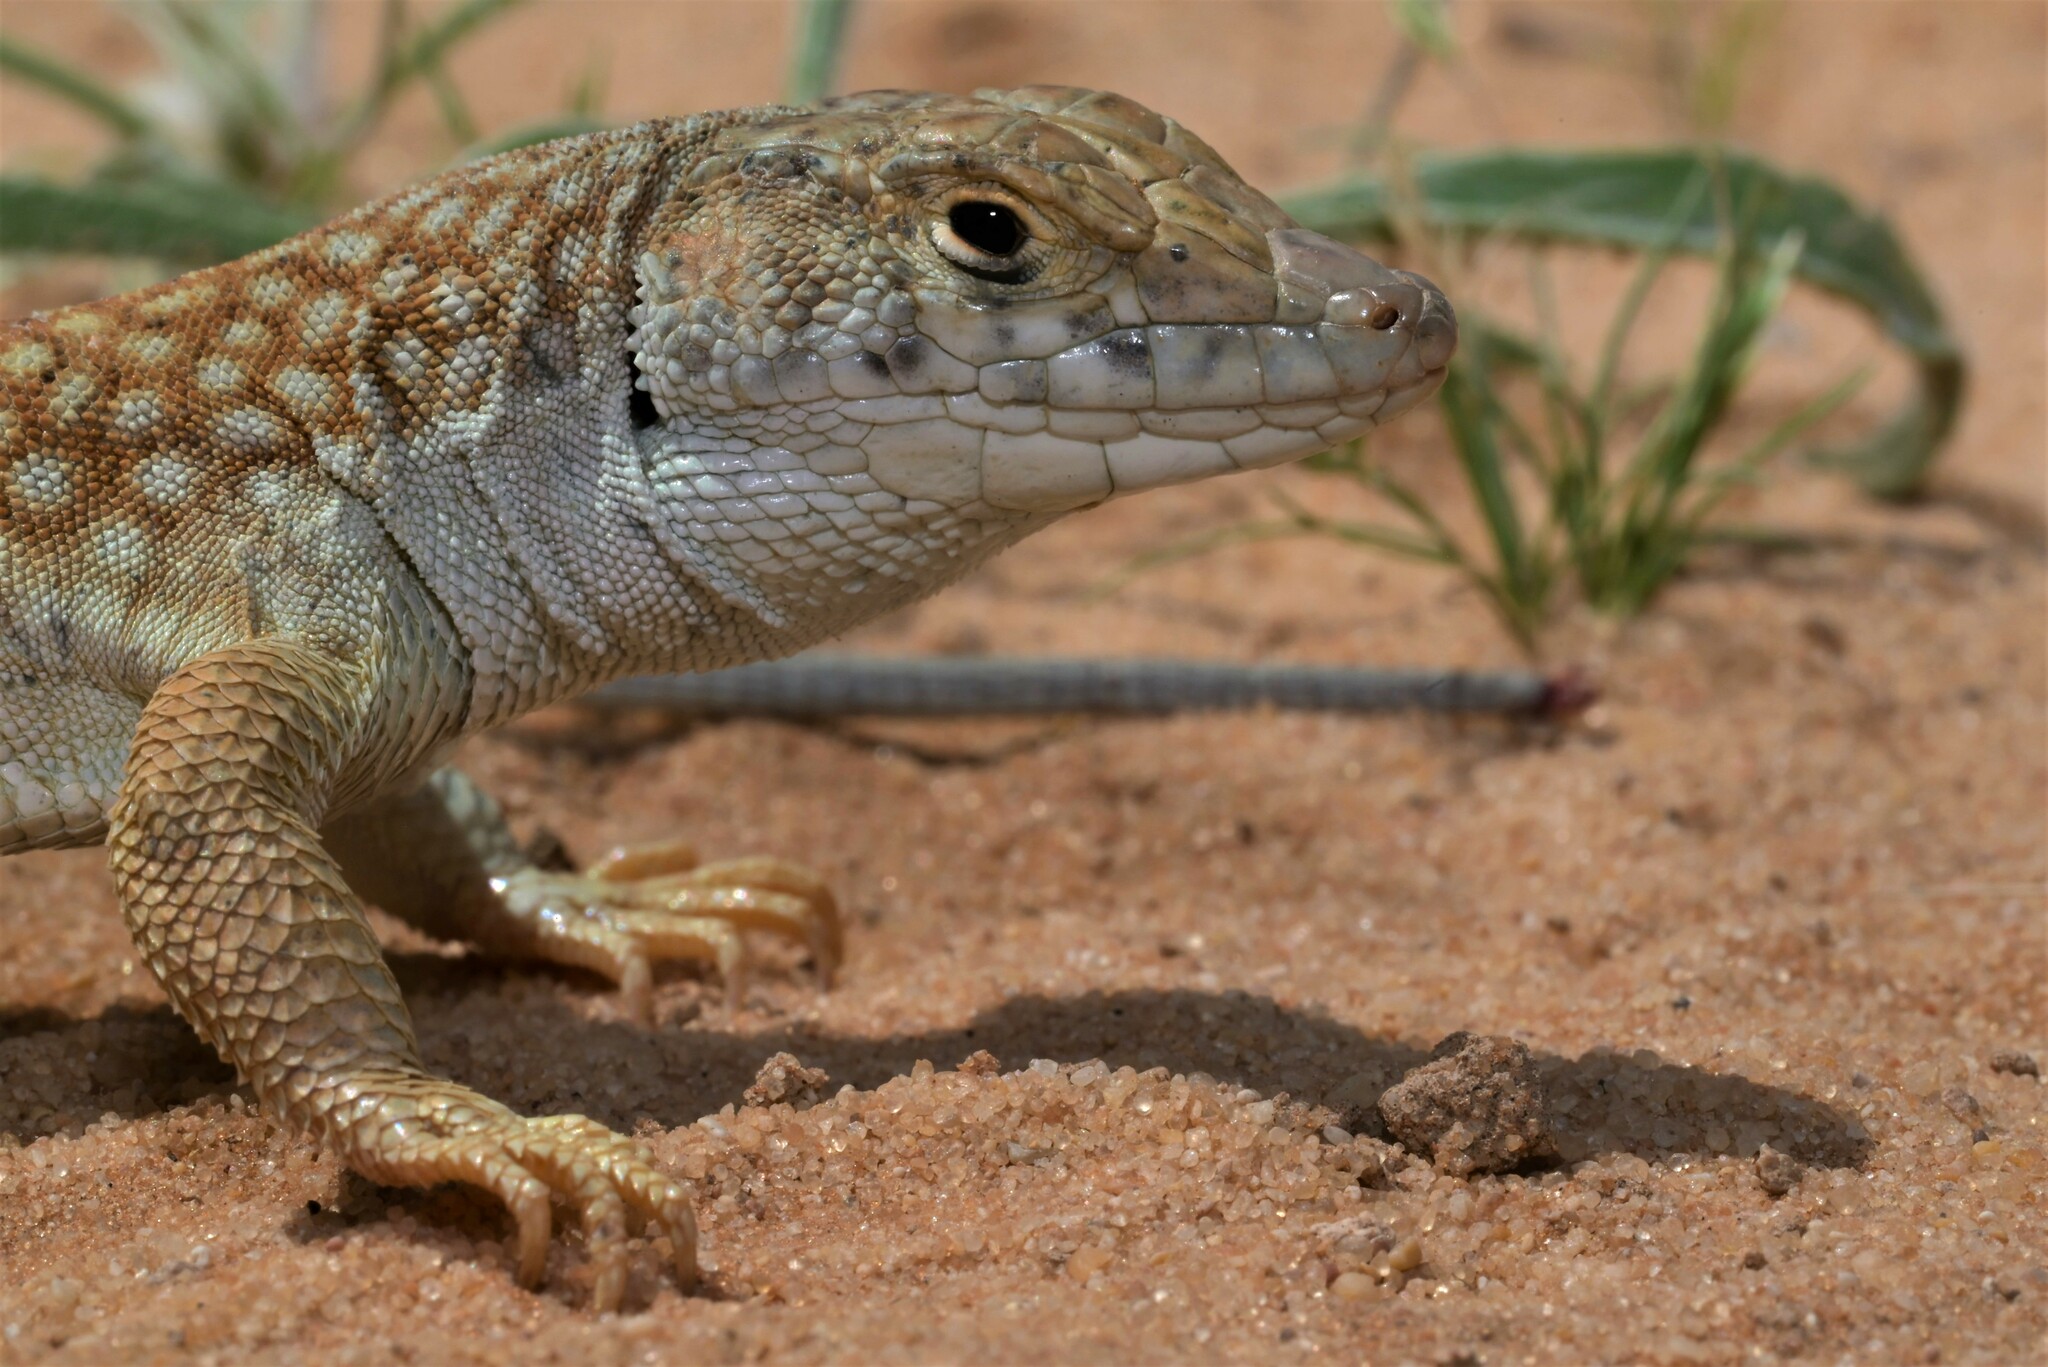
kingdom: Animalia
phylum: Chordata
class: Squamata
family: Lacertidae
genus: Acanthodactylus
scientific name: Acanthodactylus schmidti
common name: Schmidt's fringe-toed lizard
